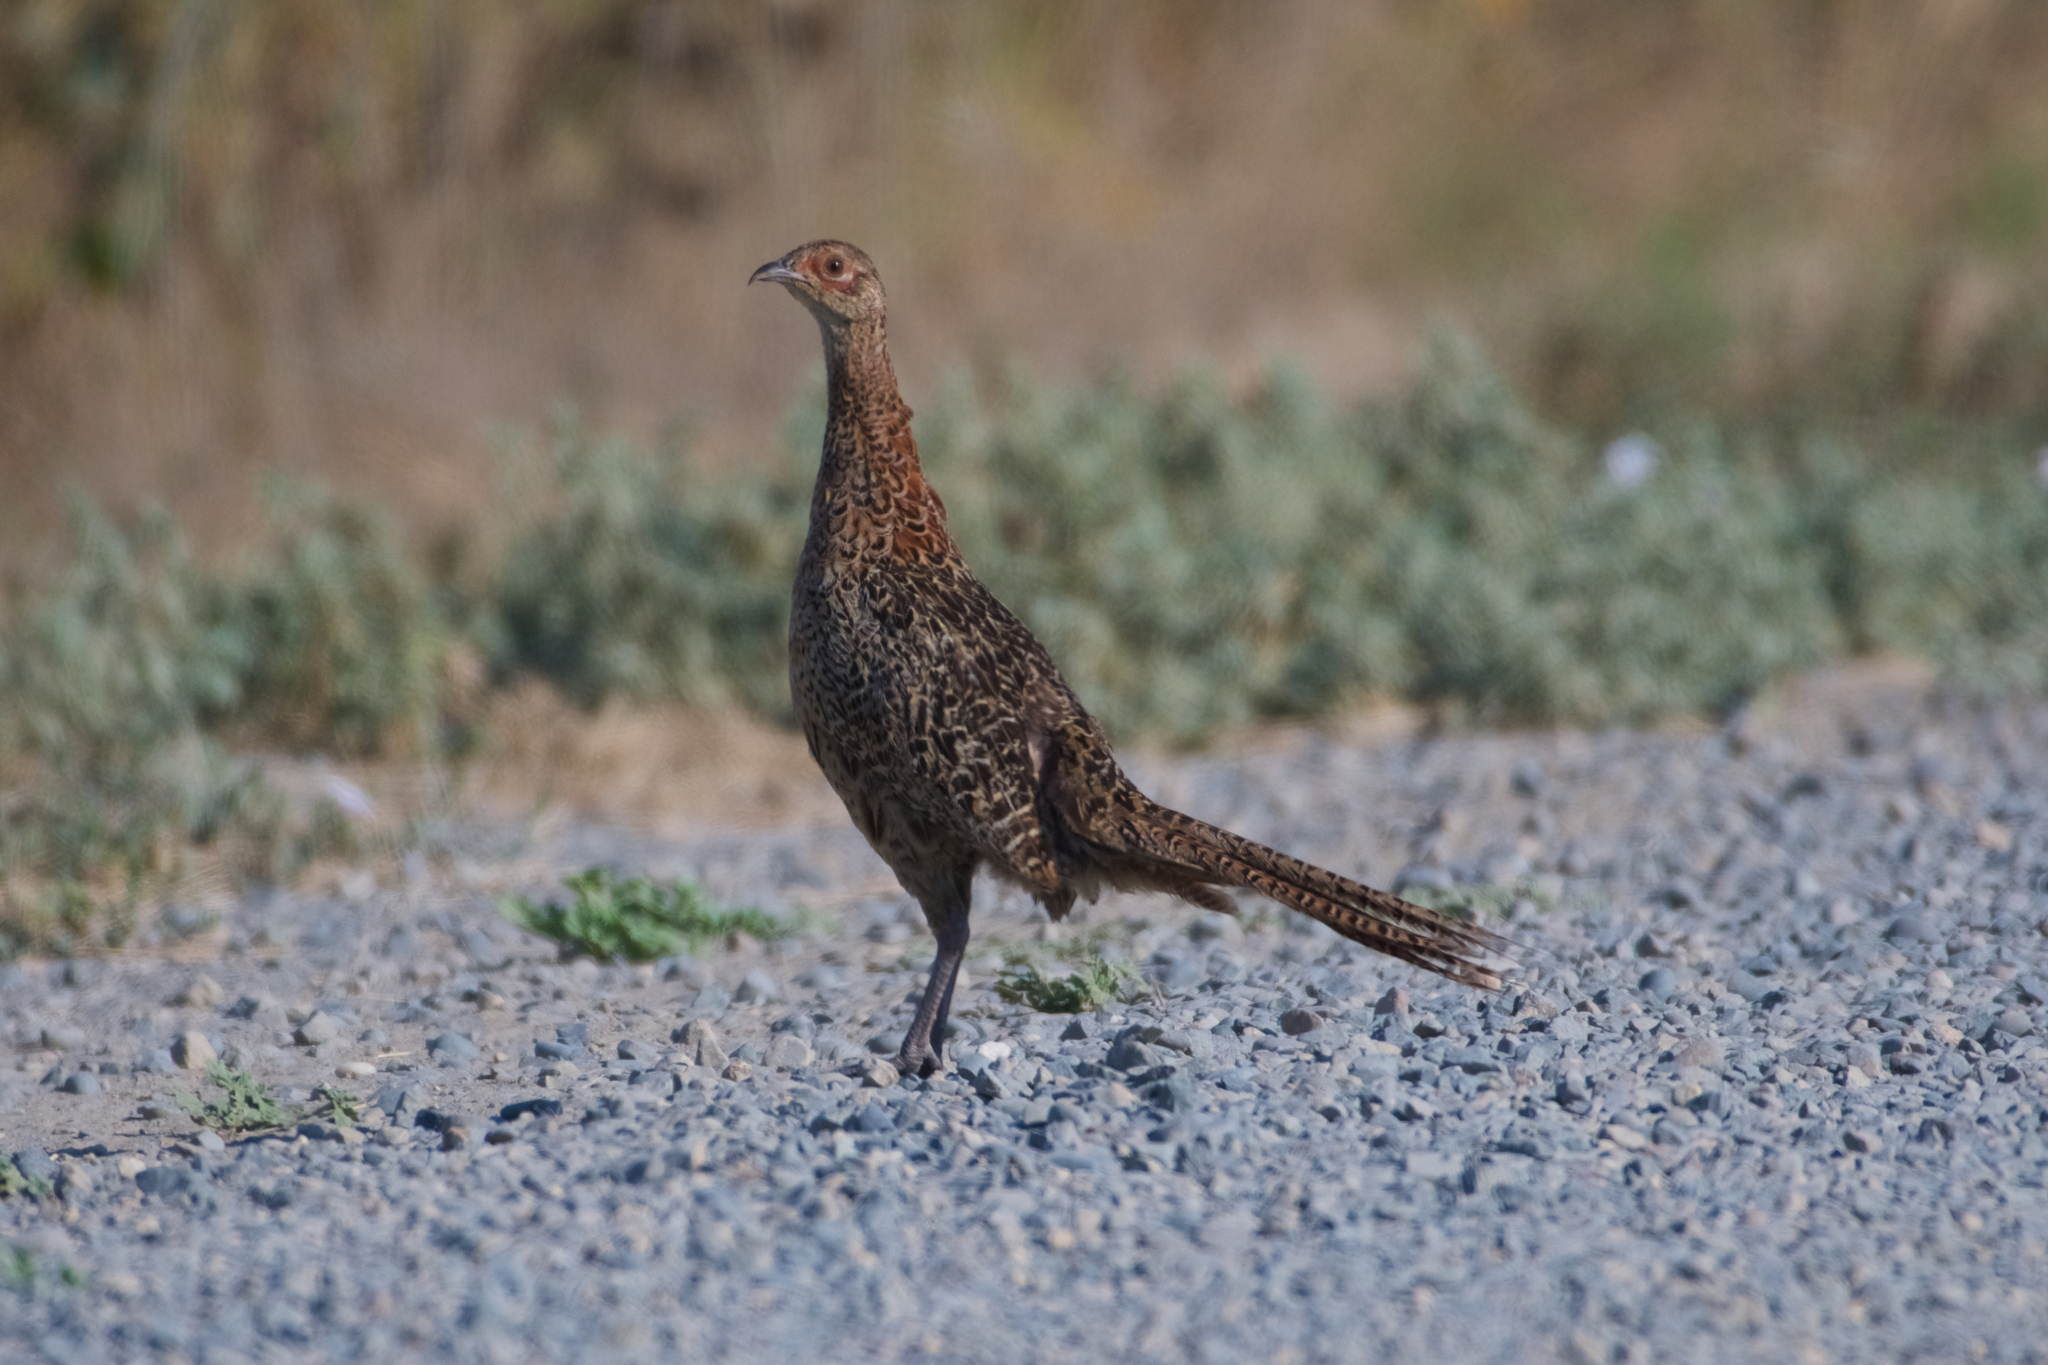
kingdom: Animalia
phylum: Chordata
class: Aves
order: Galliformes
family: Phasianidae
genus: Phasianus
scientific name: Phasianus colchicus
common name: Common pheasant
